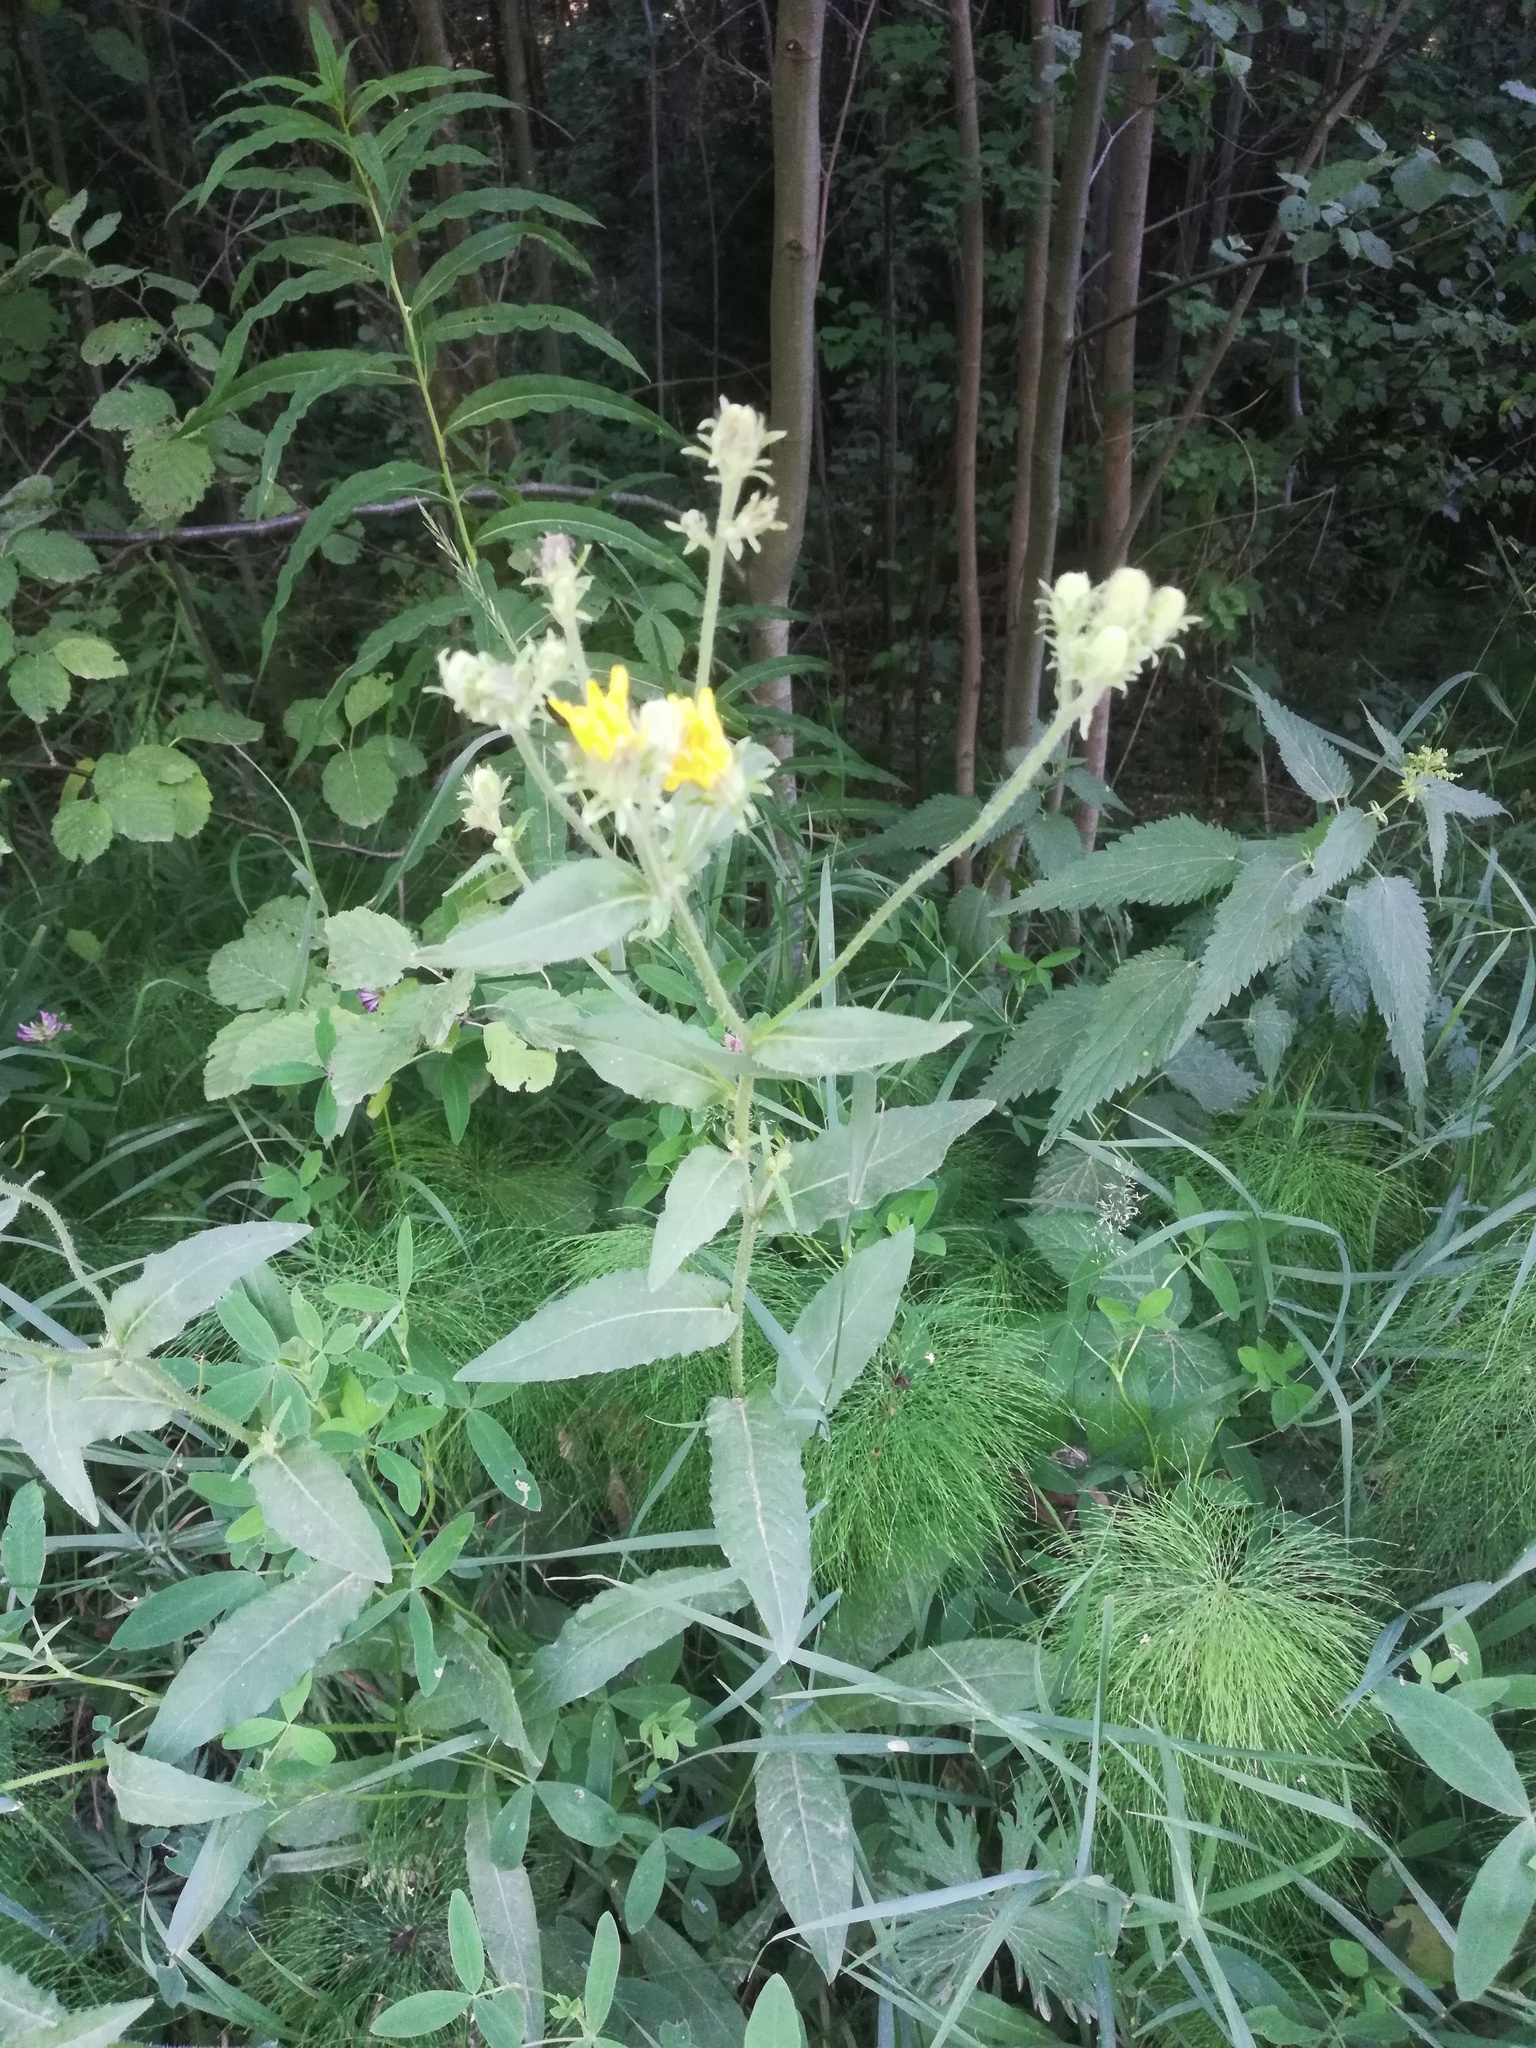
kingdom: Plantae
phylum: Tracheophyta
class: Magnoliopsida
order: Asterales
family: Asteraceae
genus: Picris
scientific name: Picris hieracioides
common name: Hawkweed oxtongue
